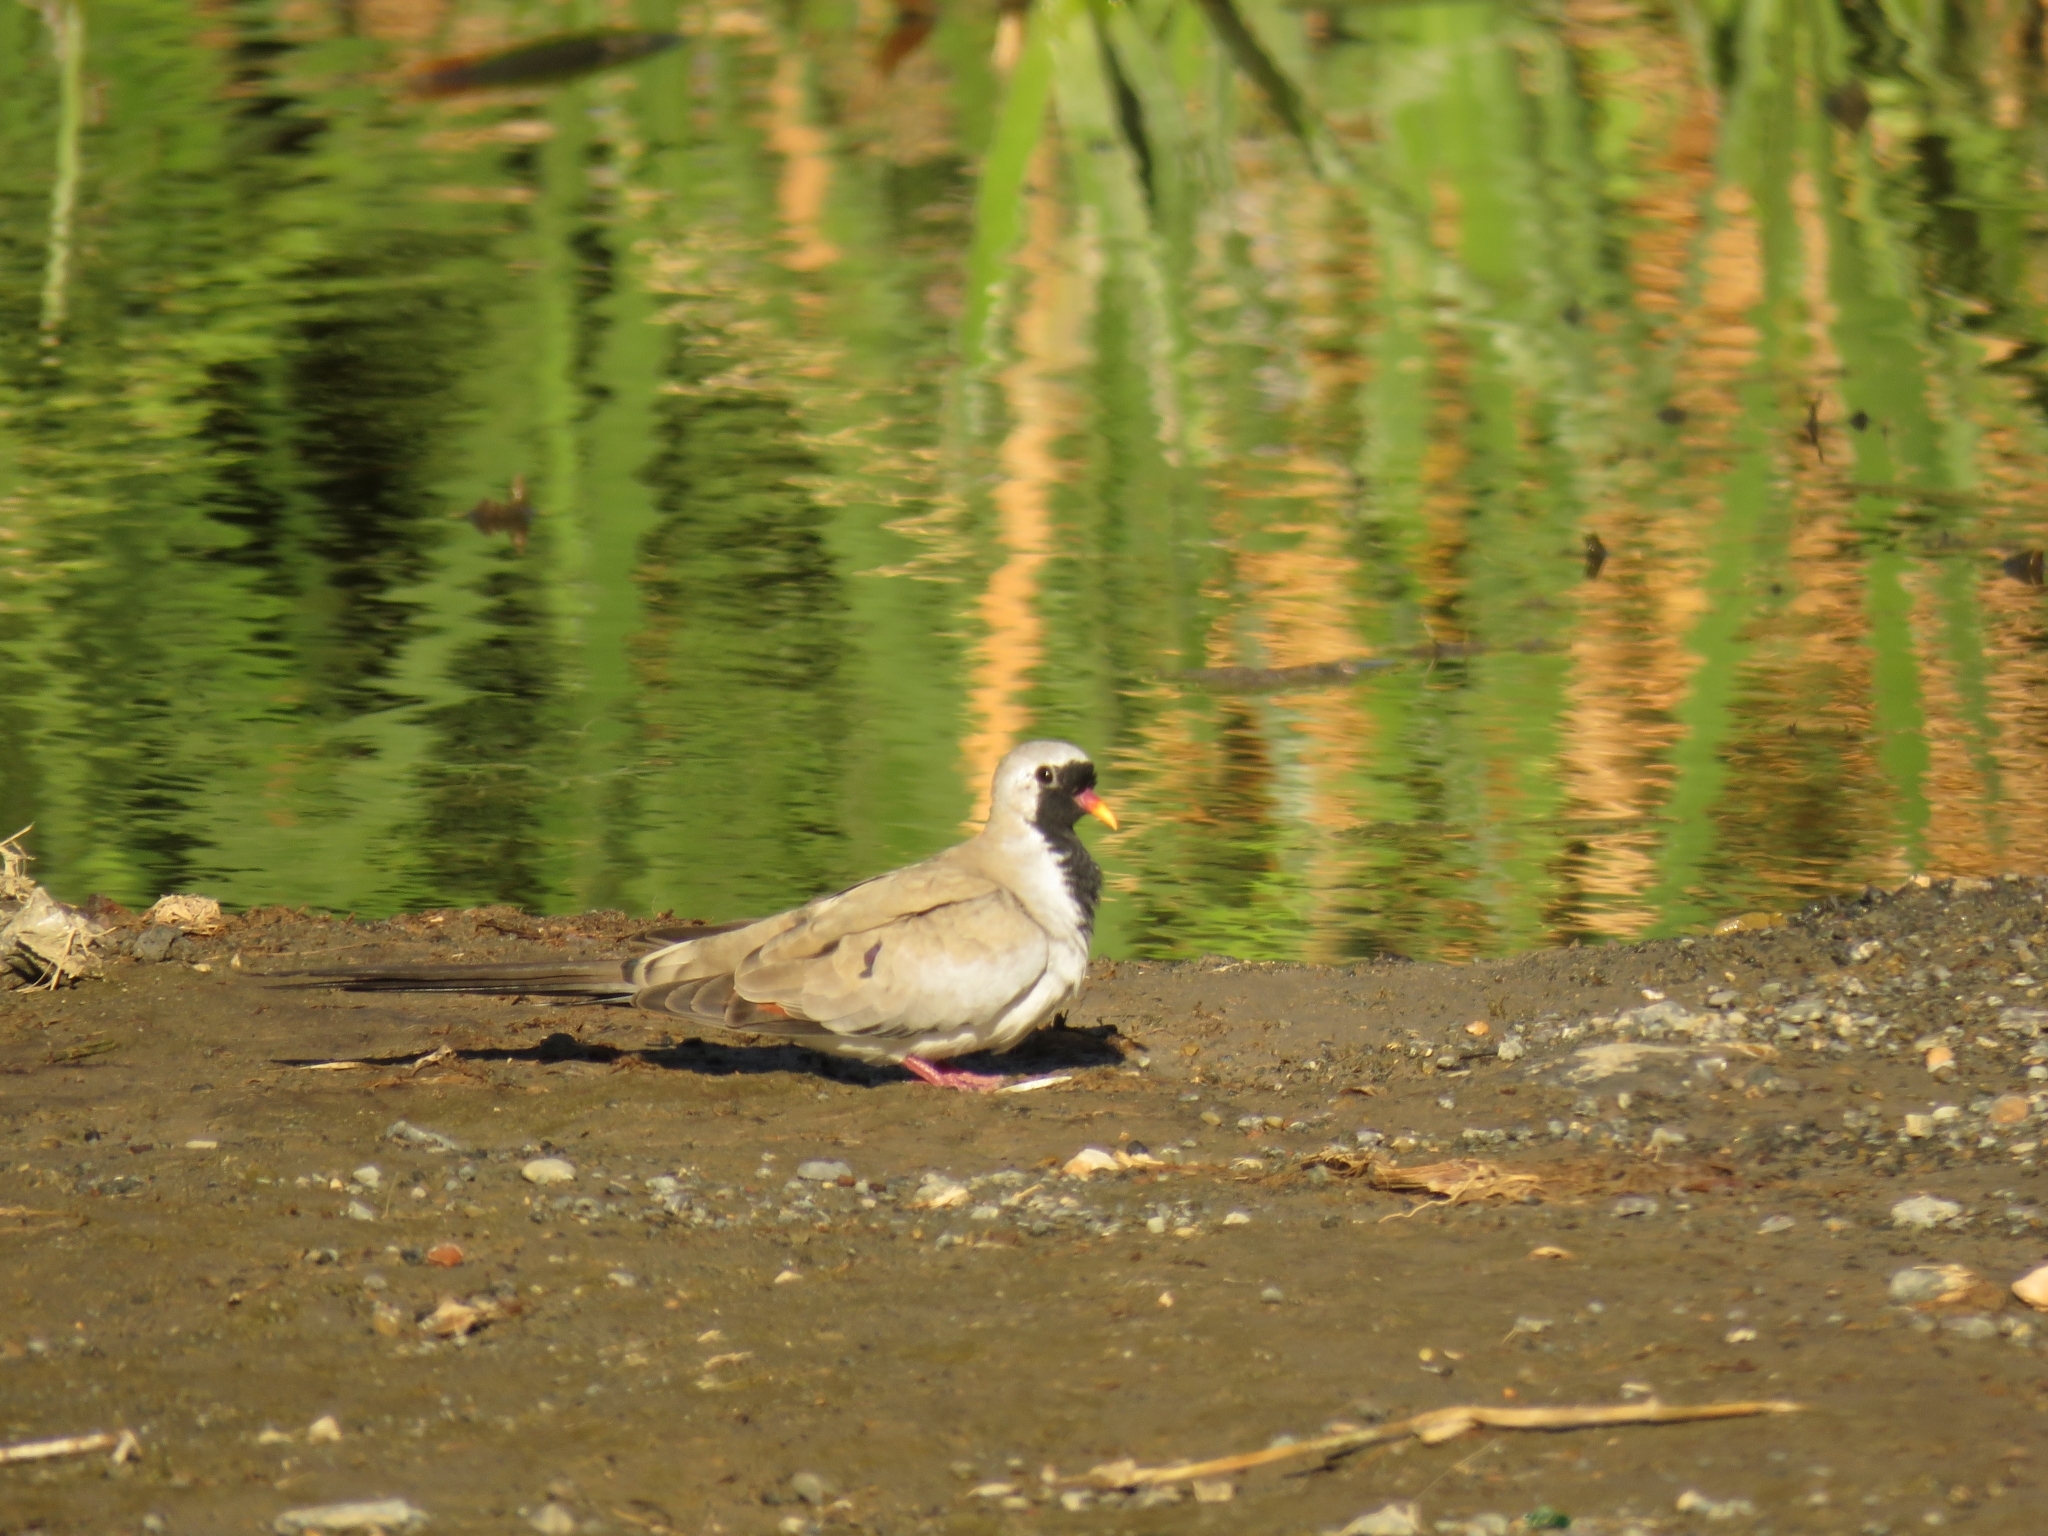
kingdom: Animalia
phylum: Chordata
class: Aves
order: Columbiformes
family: Columbidae
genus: Oena
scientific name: Oena capensis
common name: Namaqua dove
